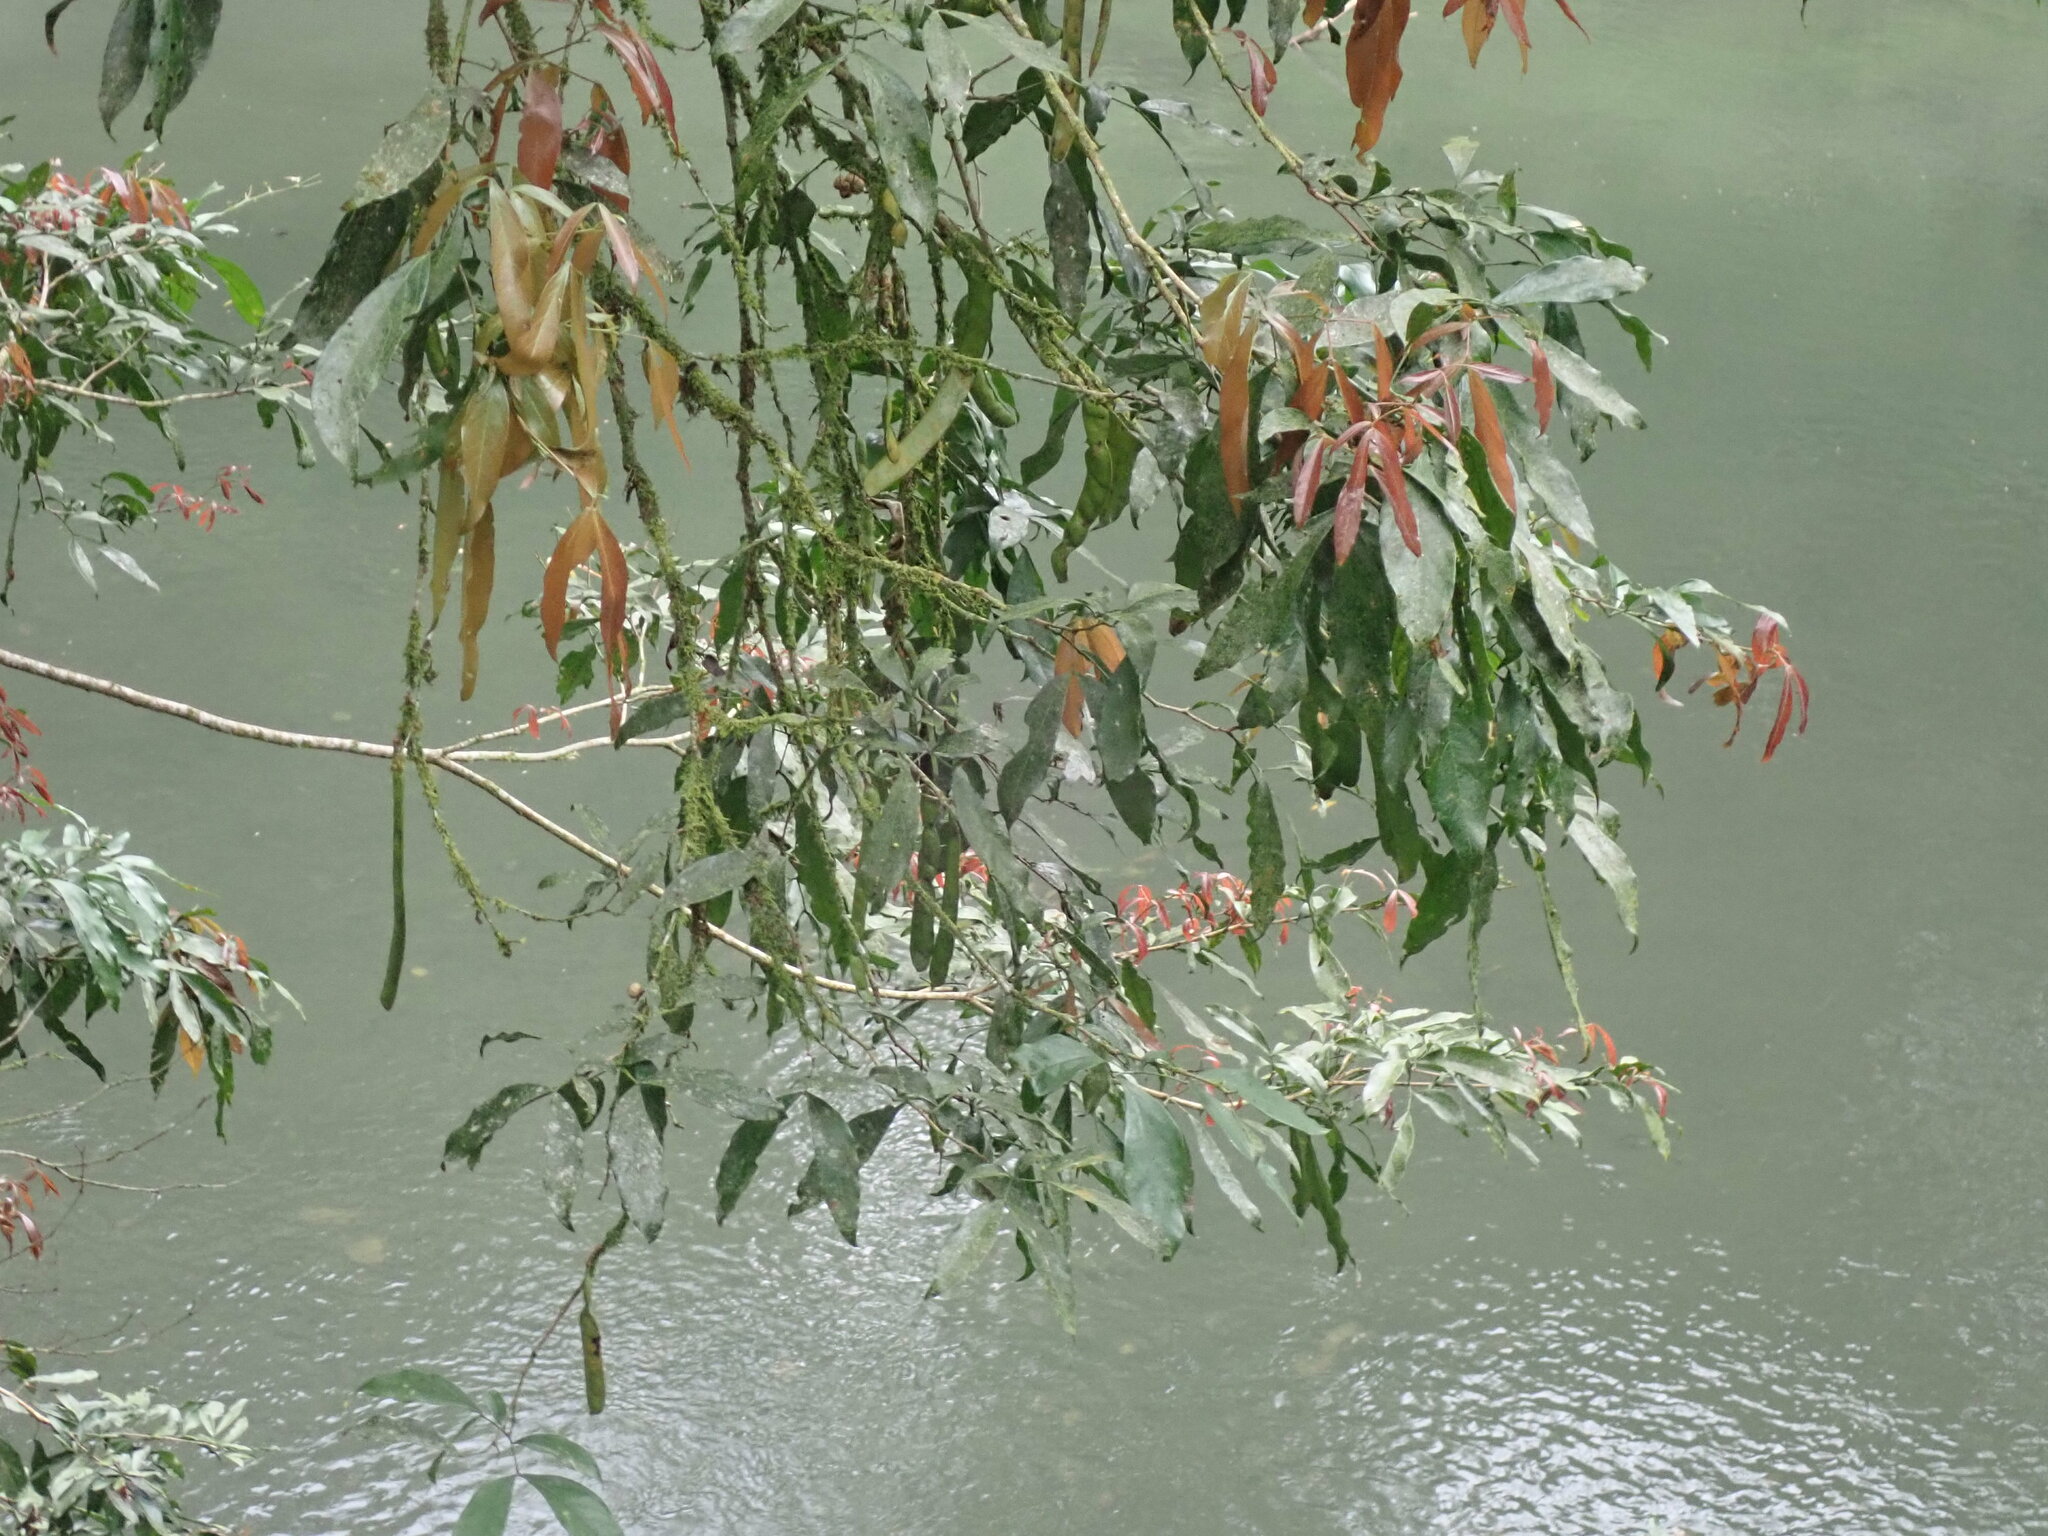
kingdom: Plantae
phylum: Tracheophyta
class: Magnoliopsida
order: Fabales
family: Fabaceae
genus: Zygia
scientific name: Zygia longifolia
